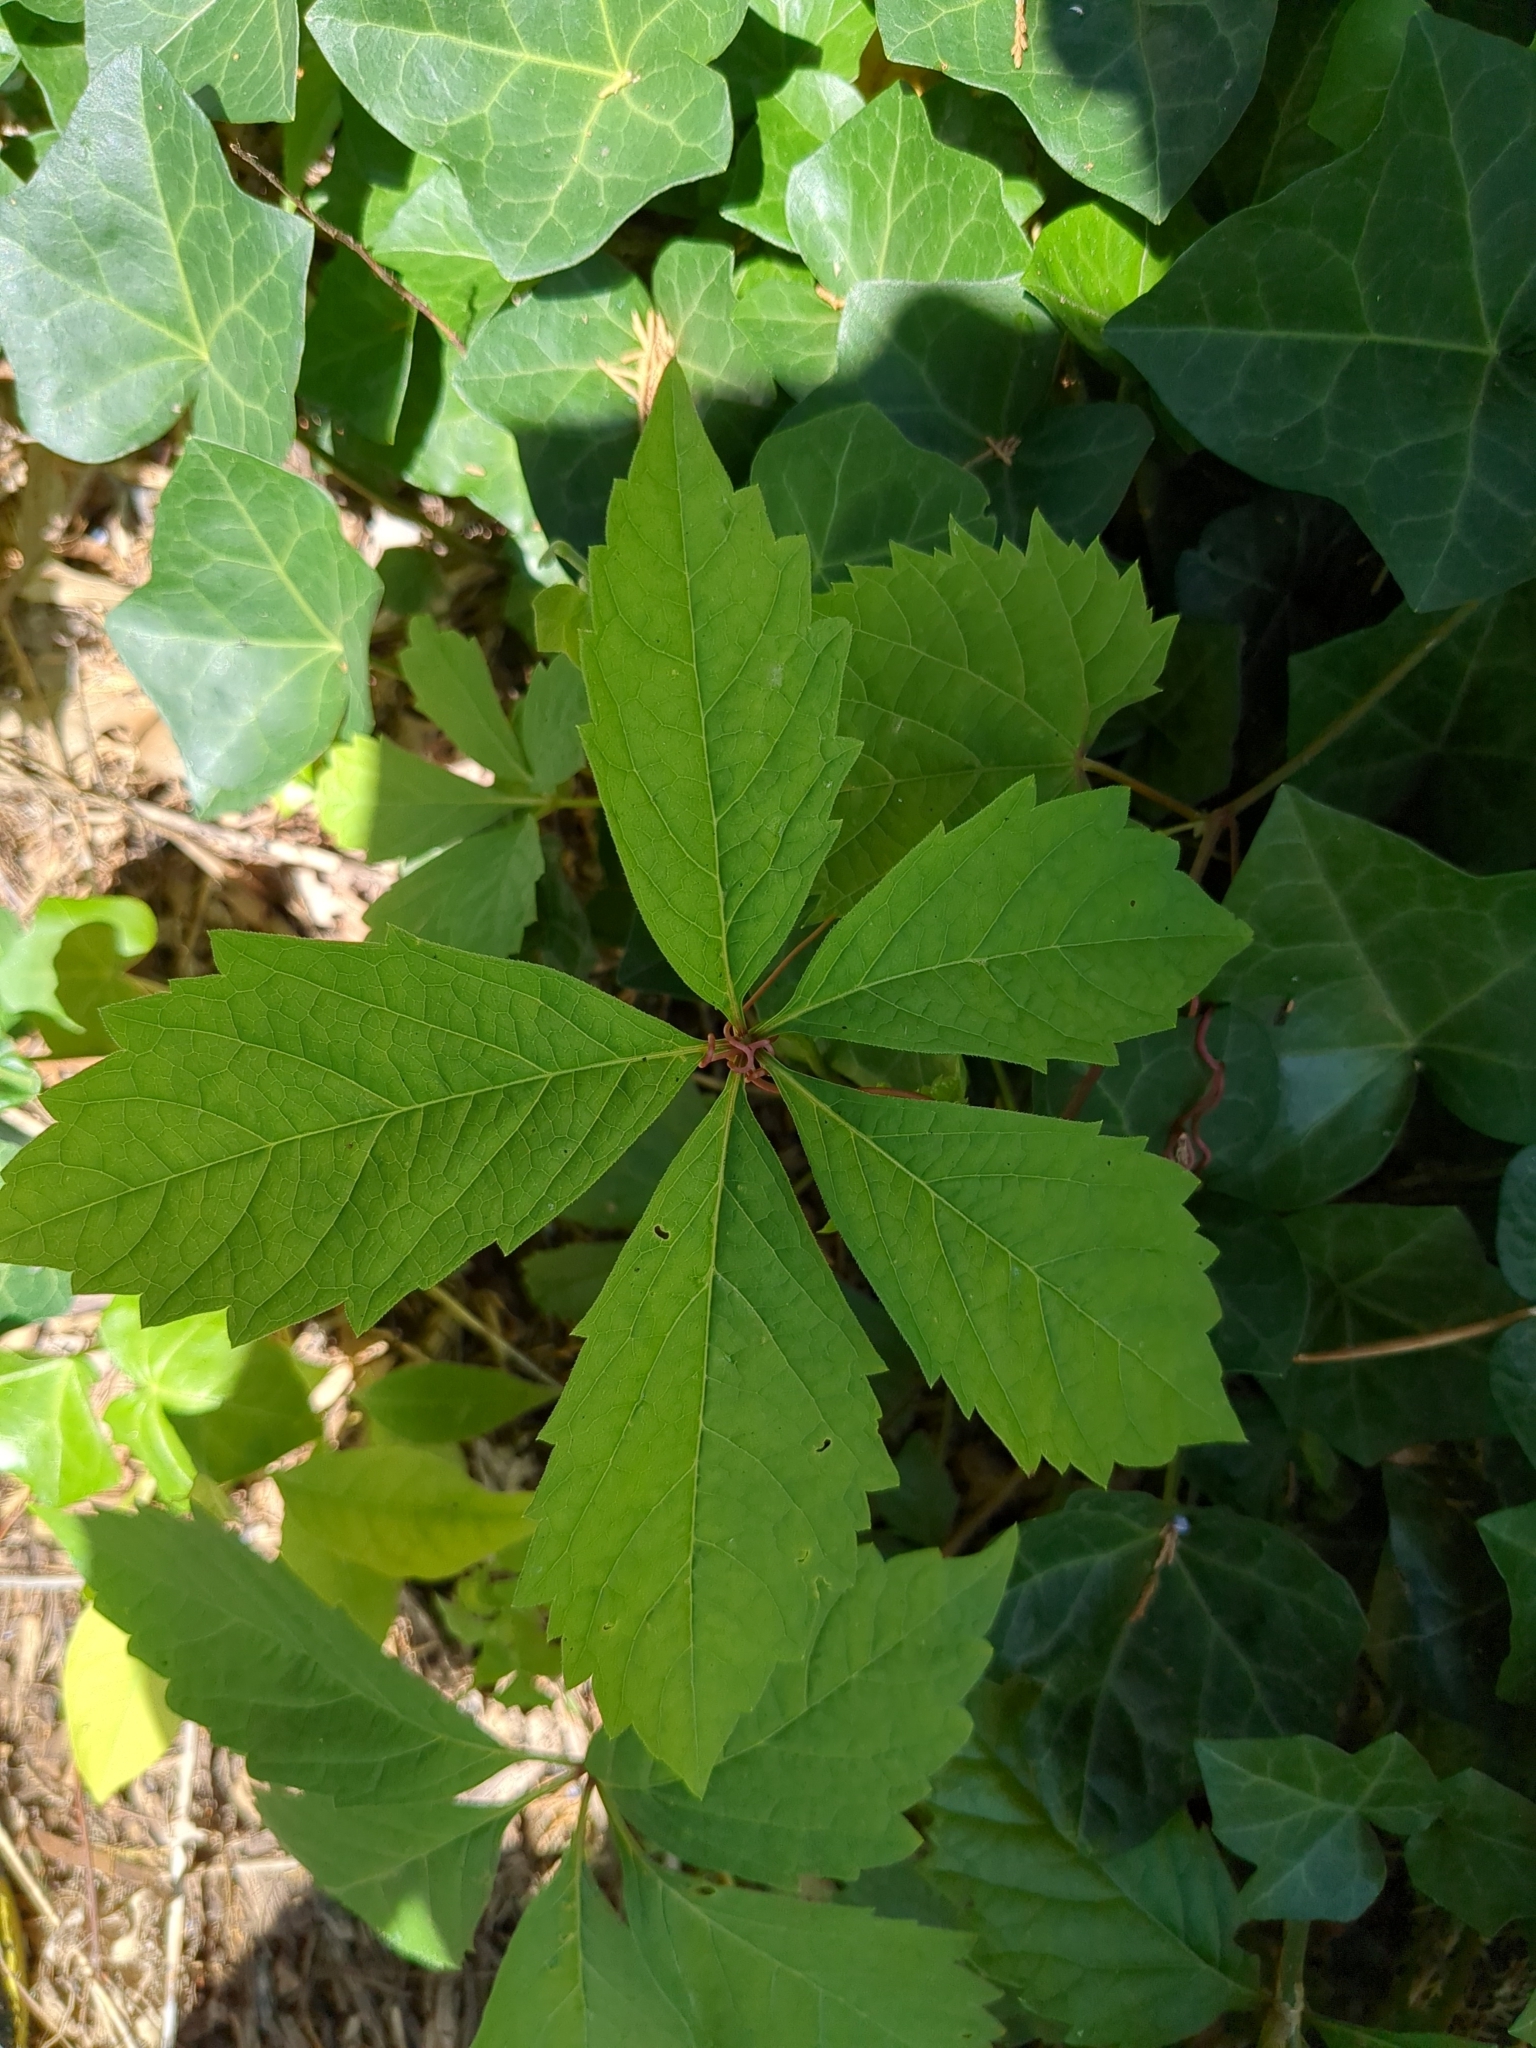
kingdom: Plantae
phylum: Tracheophyta
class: Magnoliopsida
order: Vitales
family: Vitaceae
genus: Parthenocissus
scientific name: Parthenocissus quinquefolia
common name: Virginia-creeper
